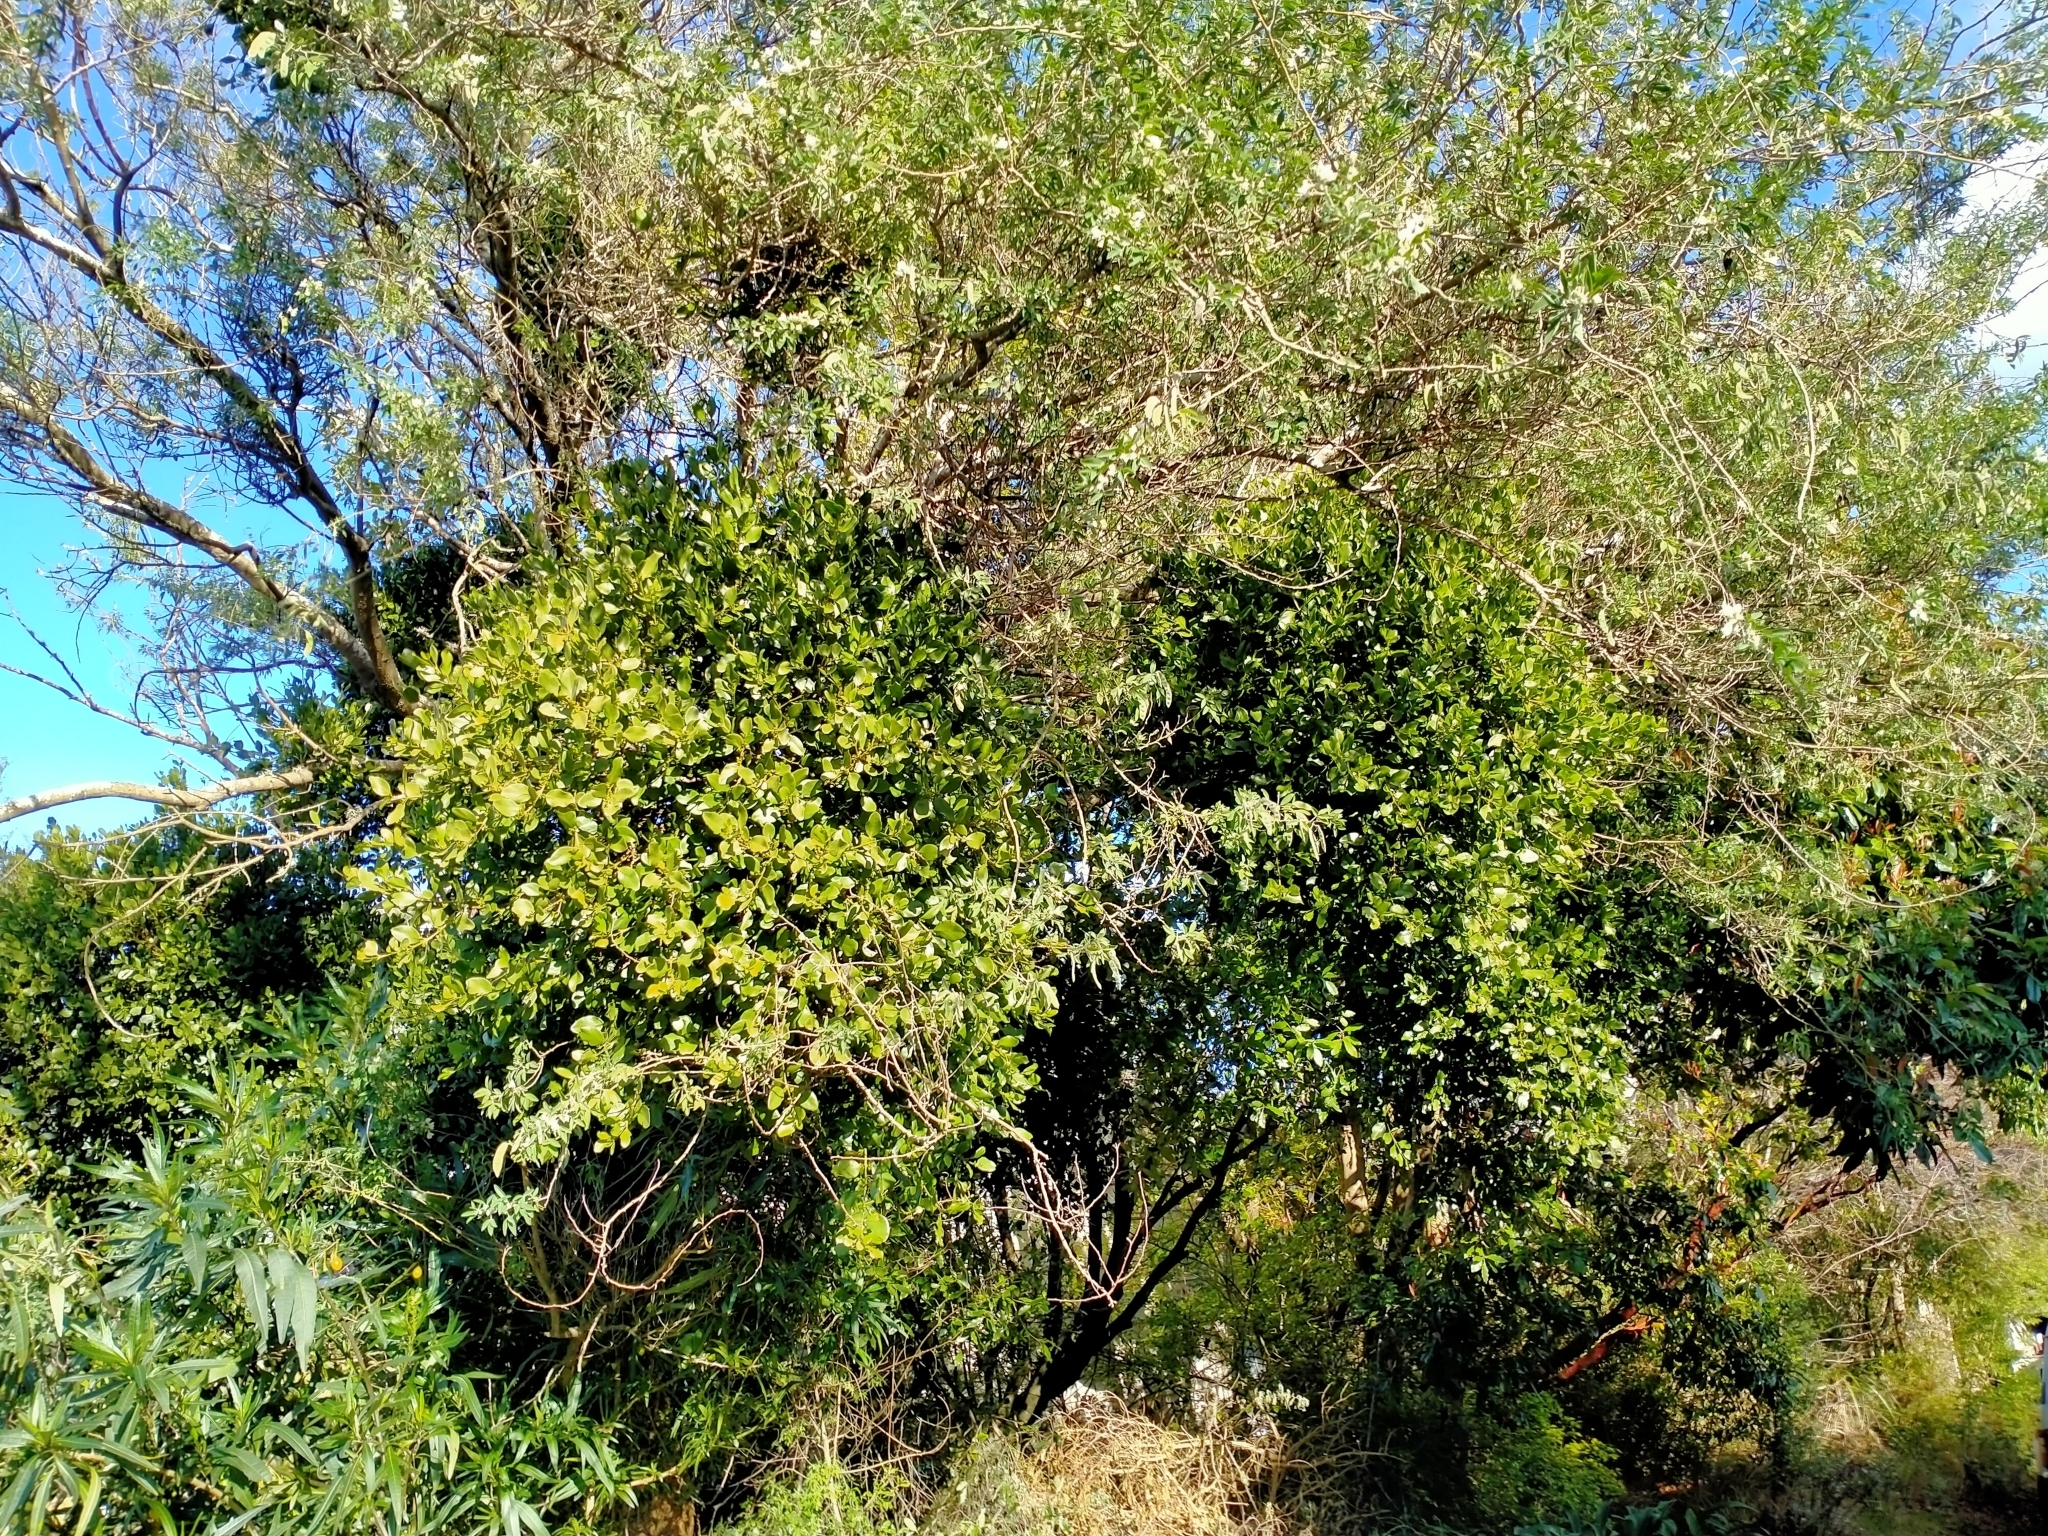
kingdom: Plantae
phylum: Tracheophyta
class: Magnoliopsida
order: Santalales
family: Loranthaceae
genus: Ileostylus
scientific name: Ileostylus micranthus
